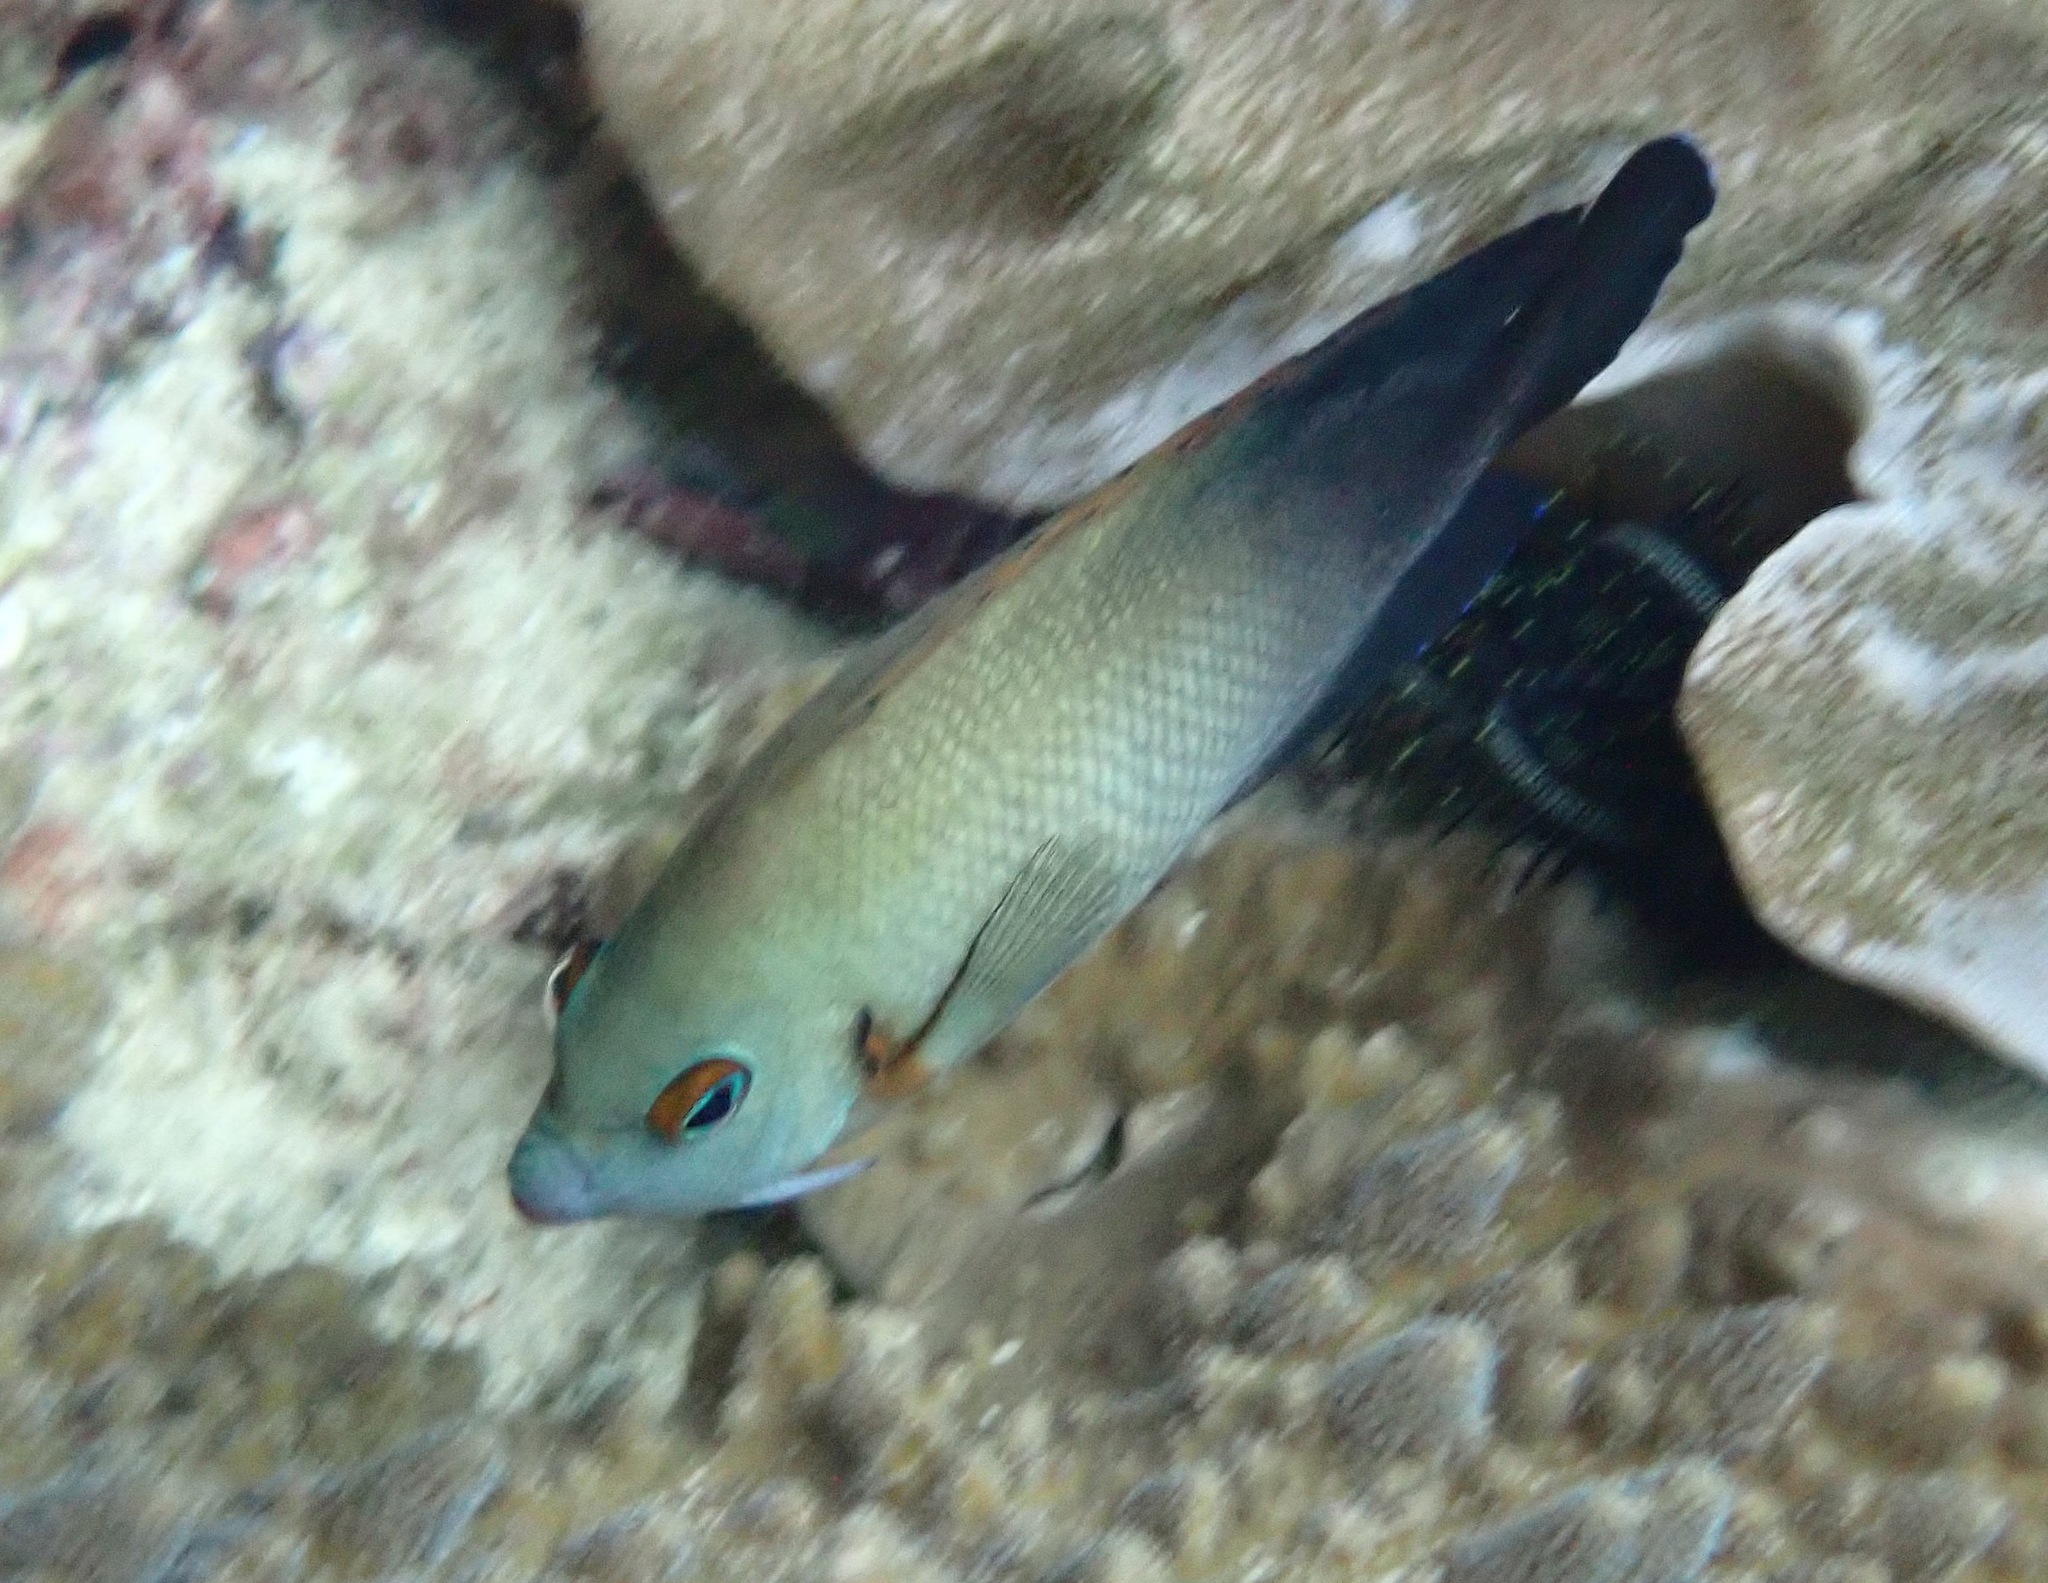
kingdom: Animalia
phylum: Chordata
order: Perciformes
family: Pomacanthidae
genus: Centropyge
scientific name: Centropyge vrolikii
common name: Pearlscale angelfish
